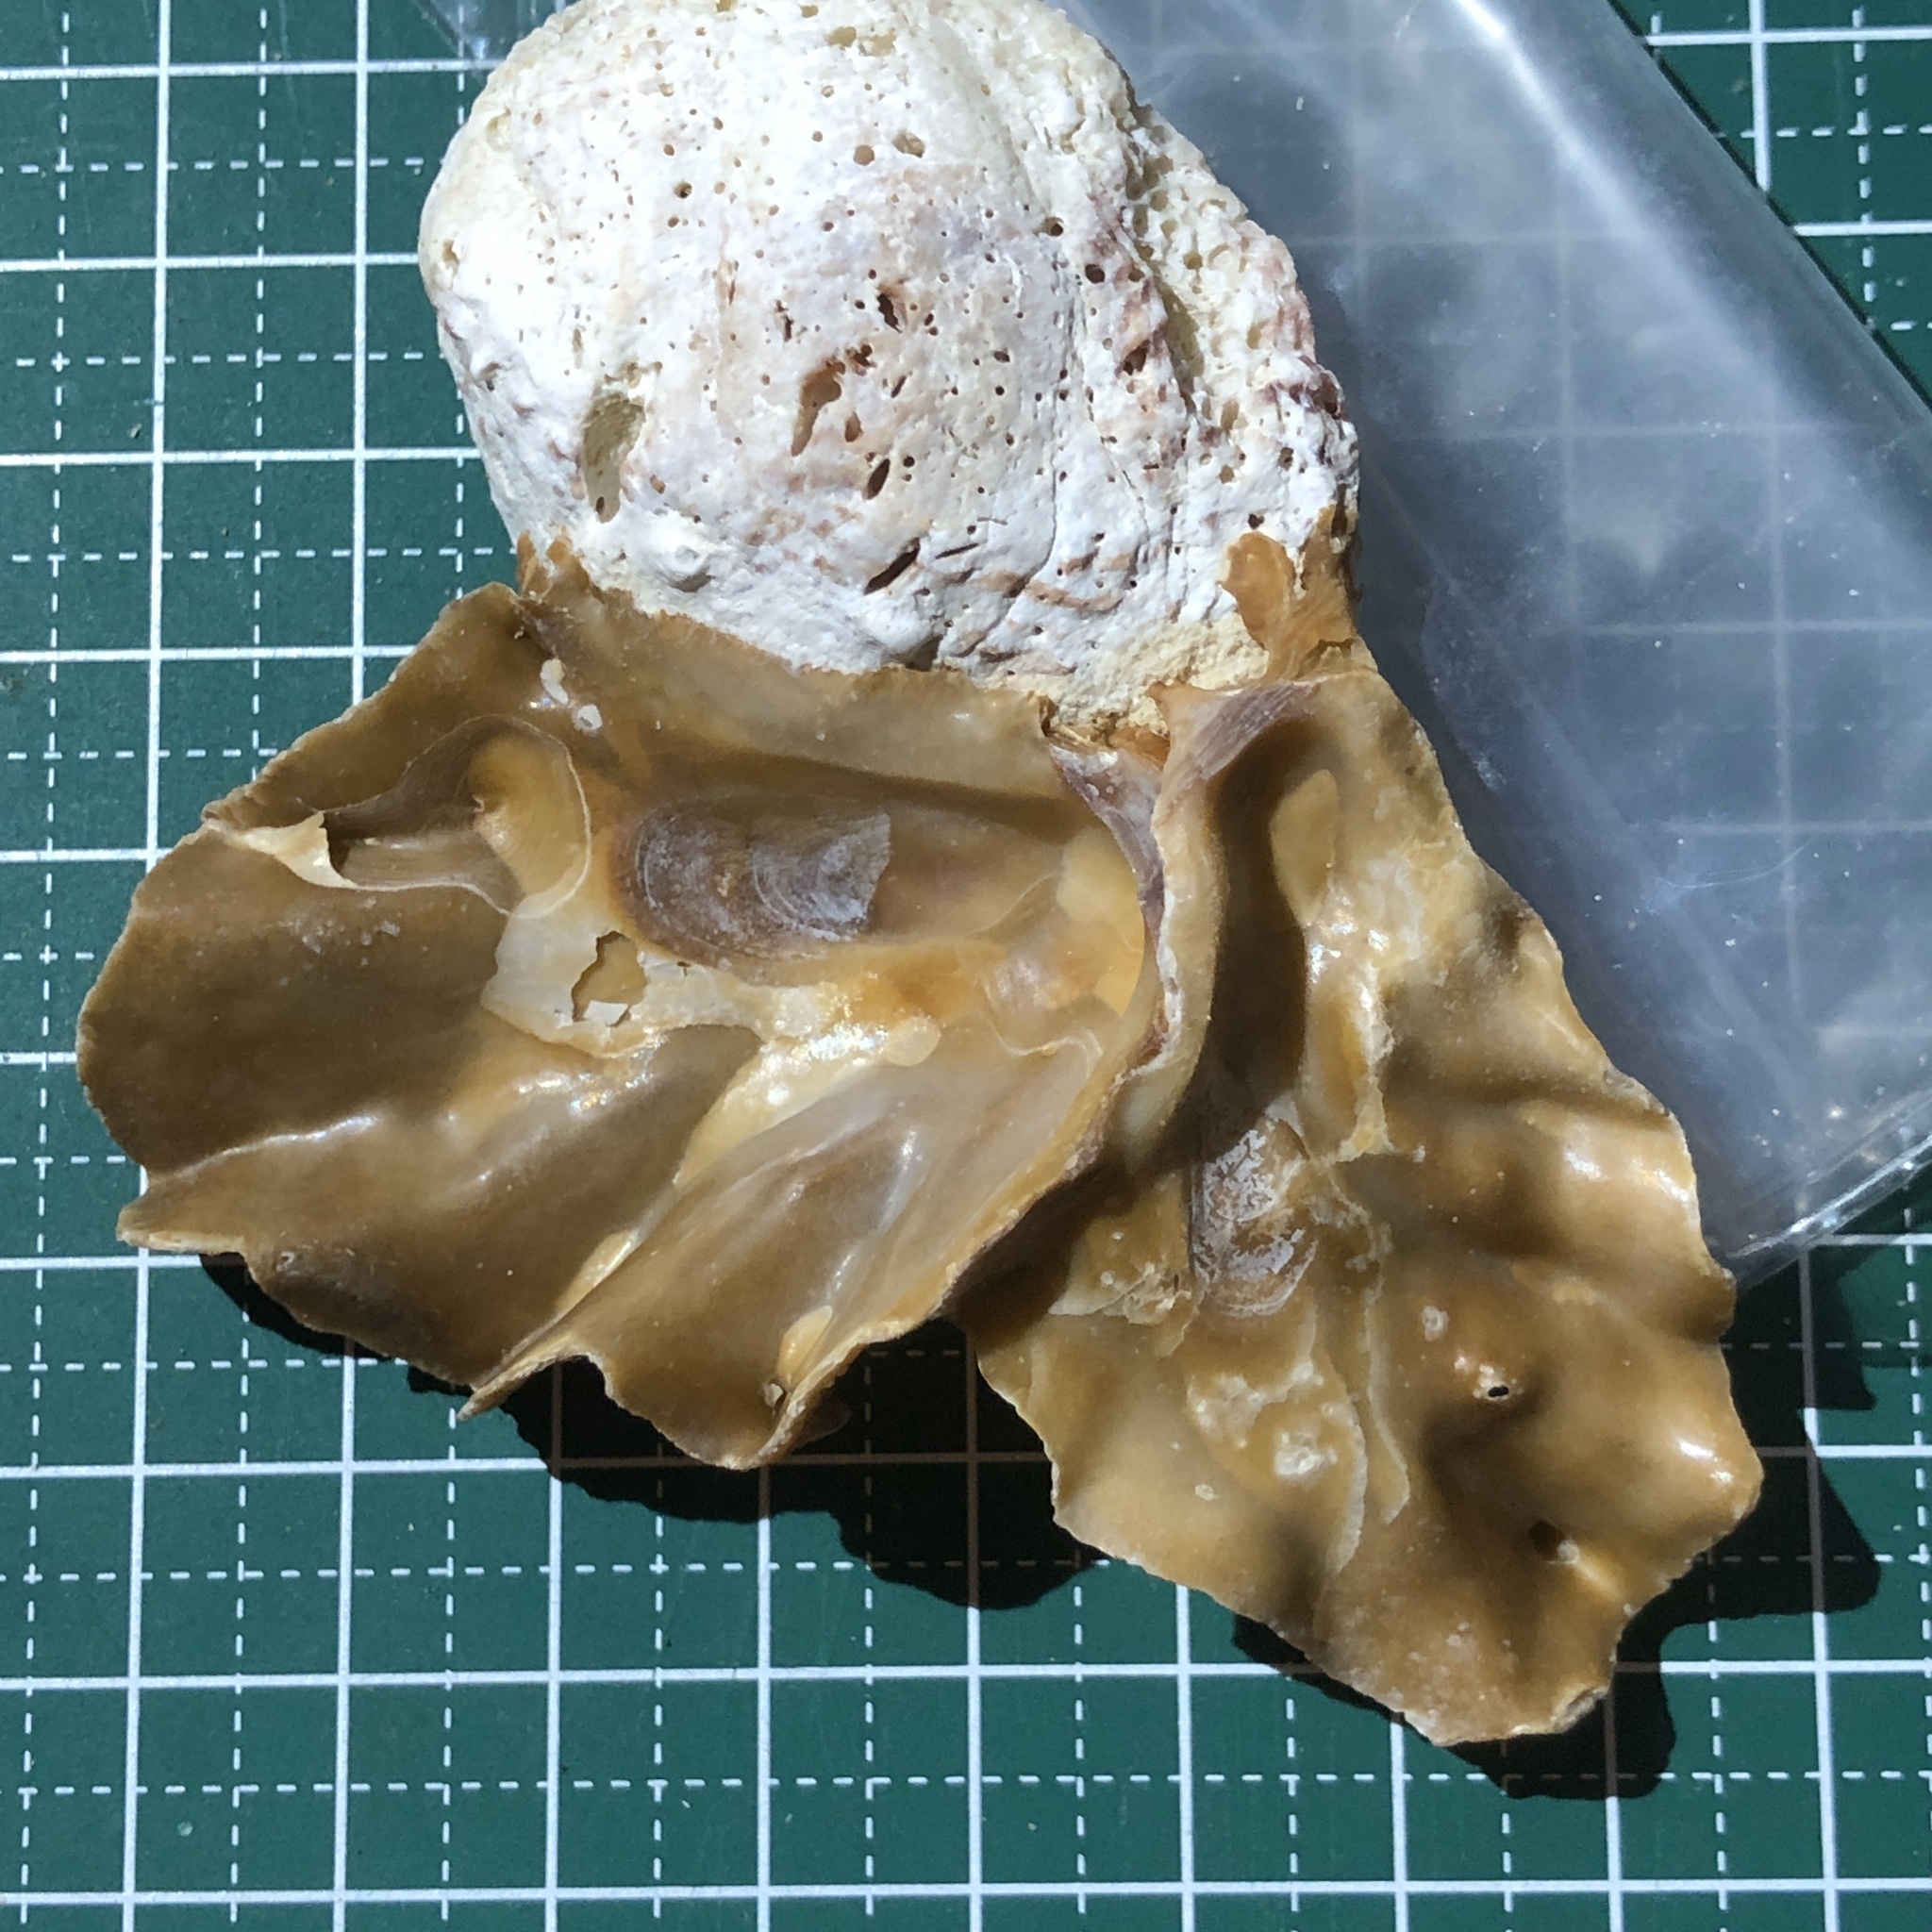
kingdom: Animalia
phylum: Mollusca
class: Bivalvia
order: Ostreida
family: Ostreidae
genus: Lopha
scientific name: Lopha cristagalli
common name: Cock's-comb oyster
